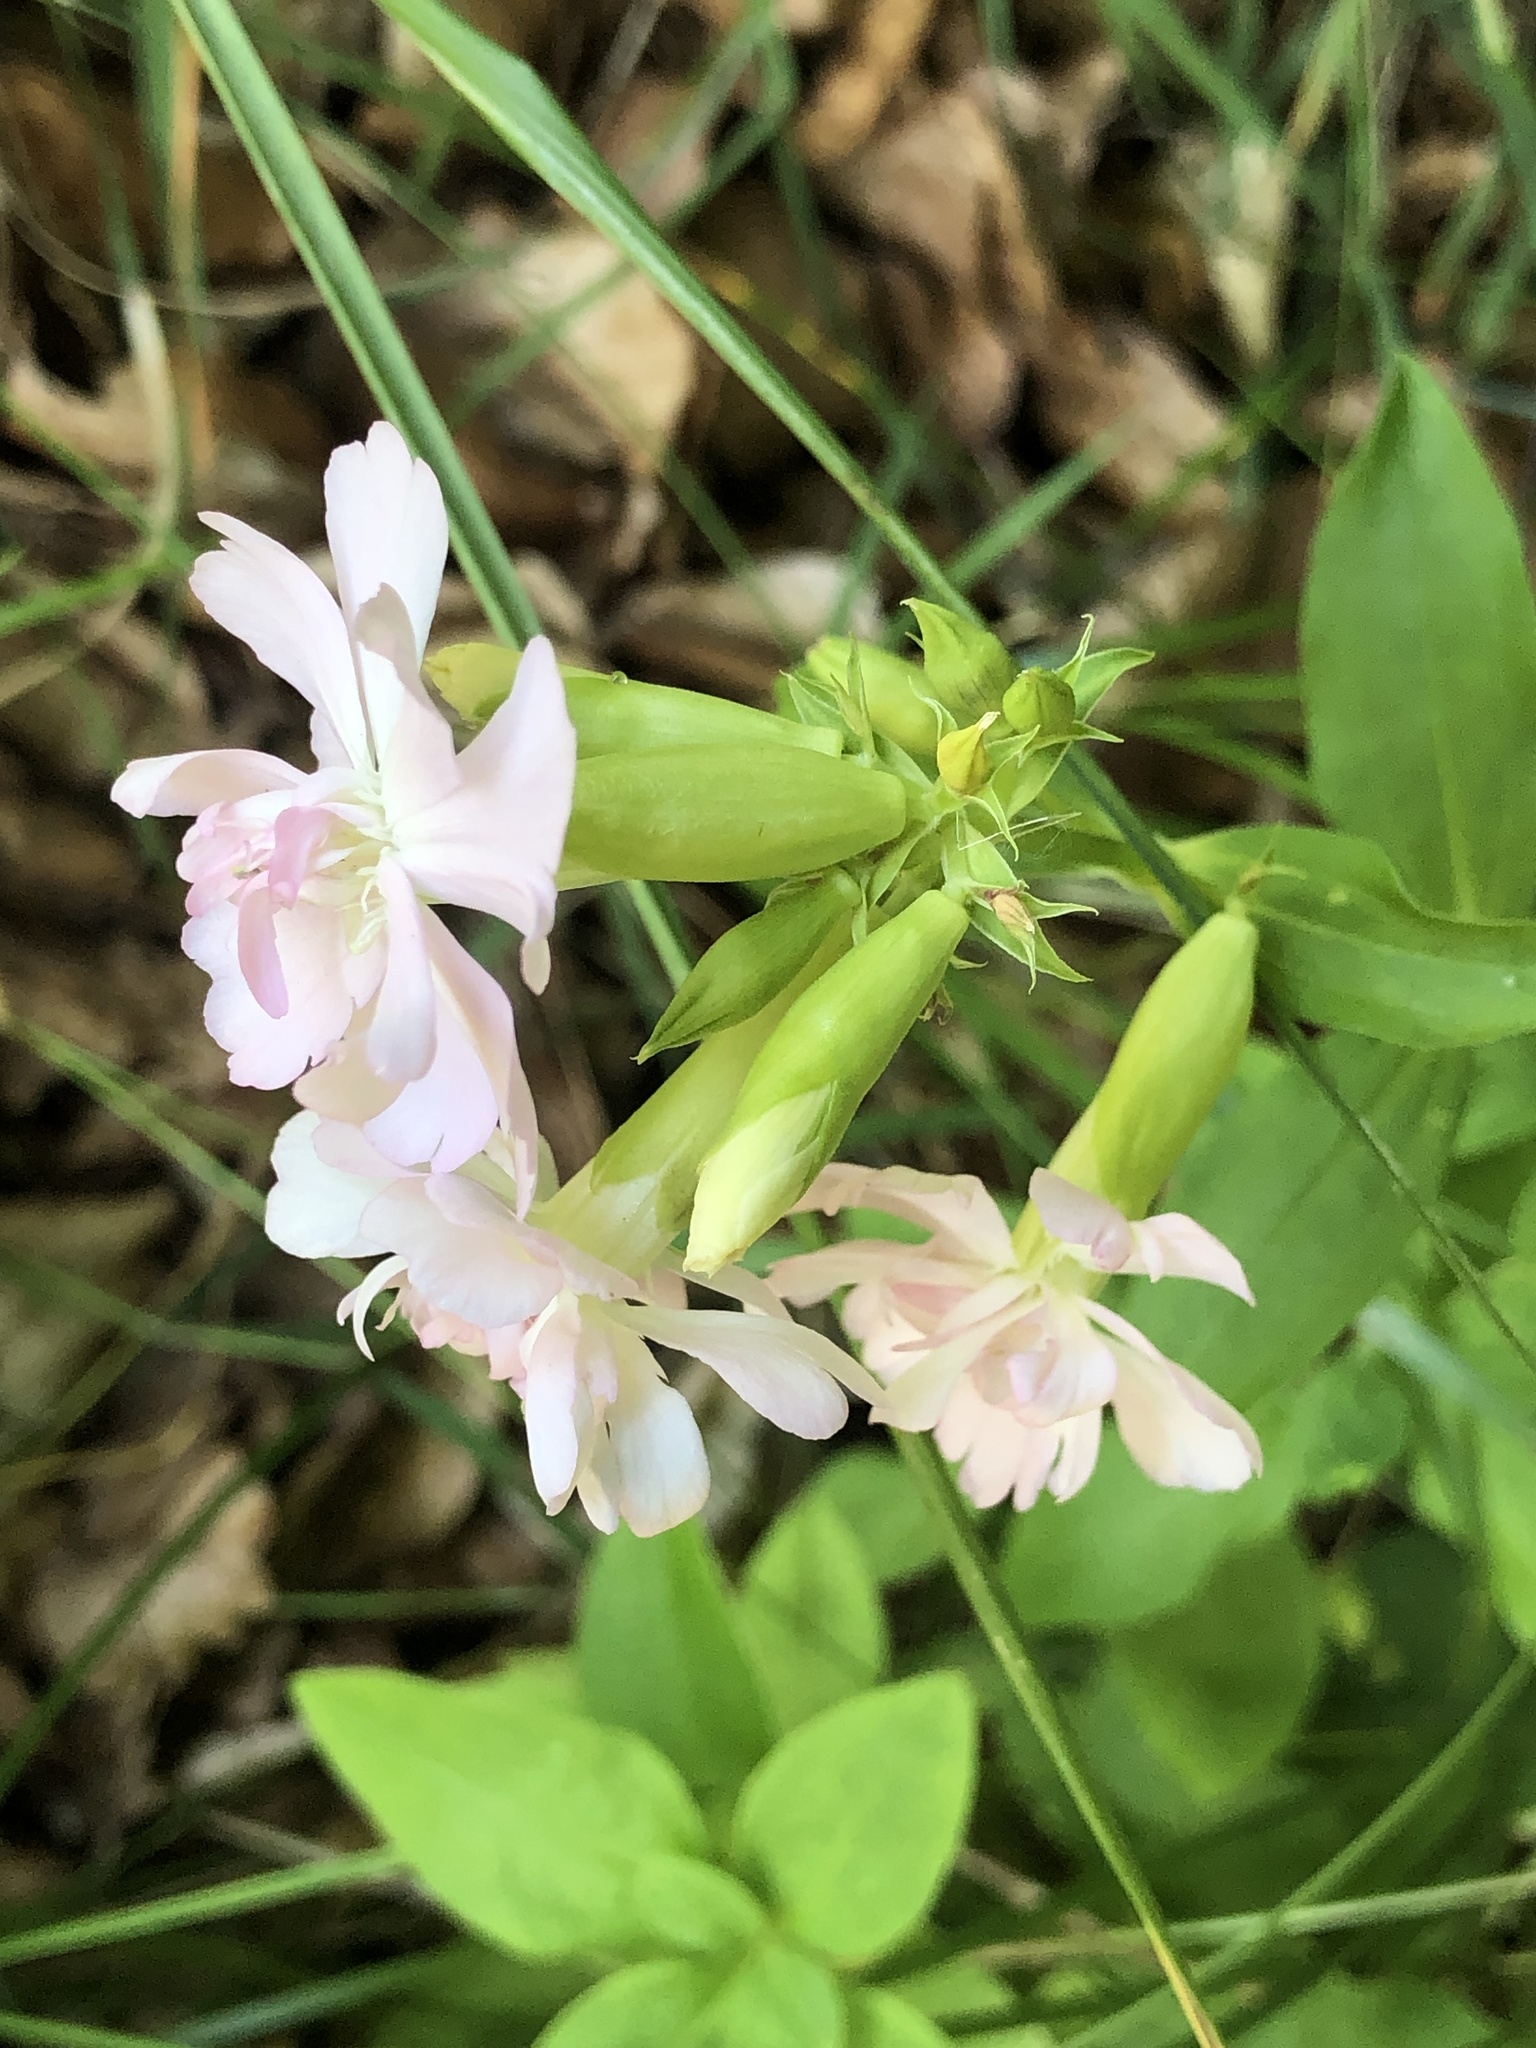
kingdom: Plantae
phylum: Tracheophyta
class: Magnoliopsida
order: Caryophyllales
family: Caryophyllaceae
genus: Saponaria
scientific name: Saponaria officinalis
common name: Soapwort
